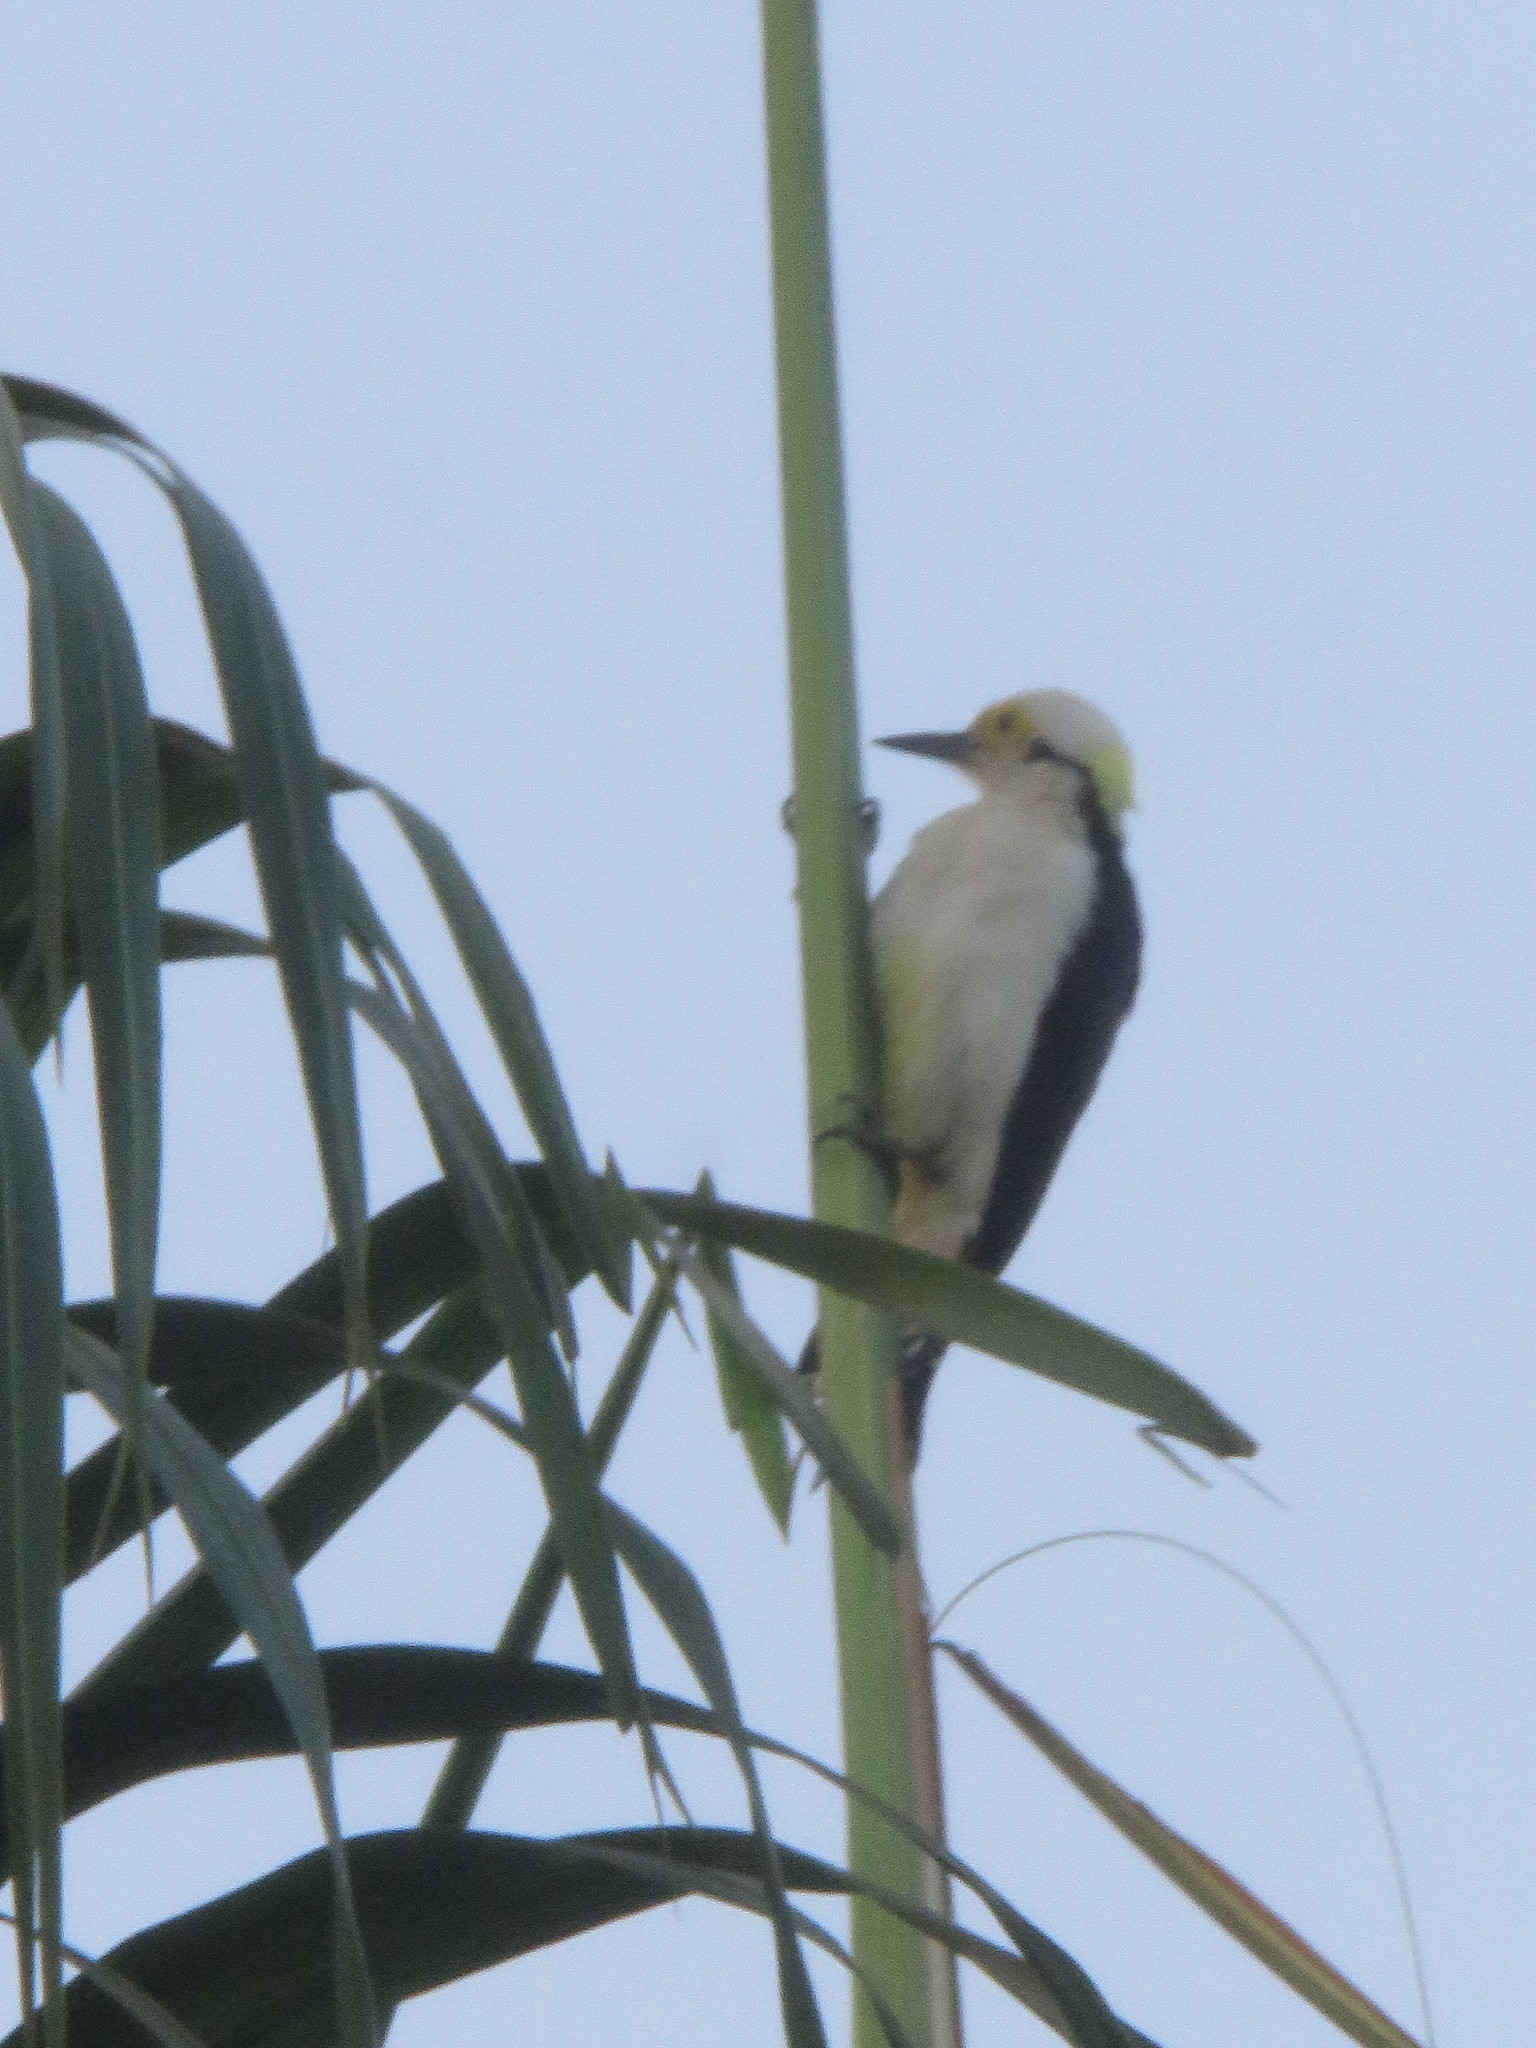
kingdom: Animalia
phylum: Chordata
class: Aves
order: Piciformes
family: Picidae
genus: Melanerpes
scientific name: Melanerpes candidus
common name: White woodpecker
